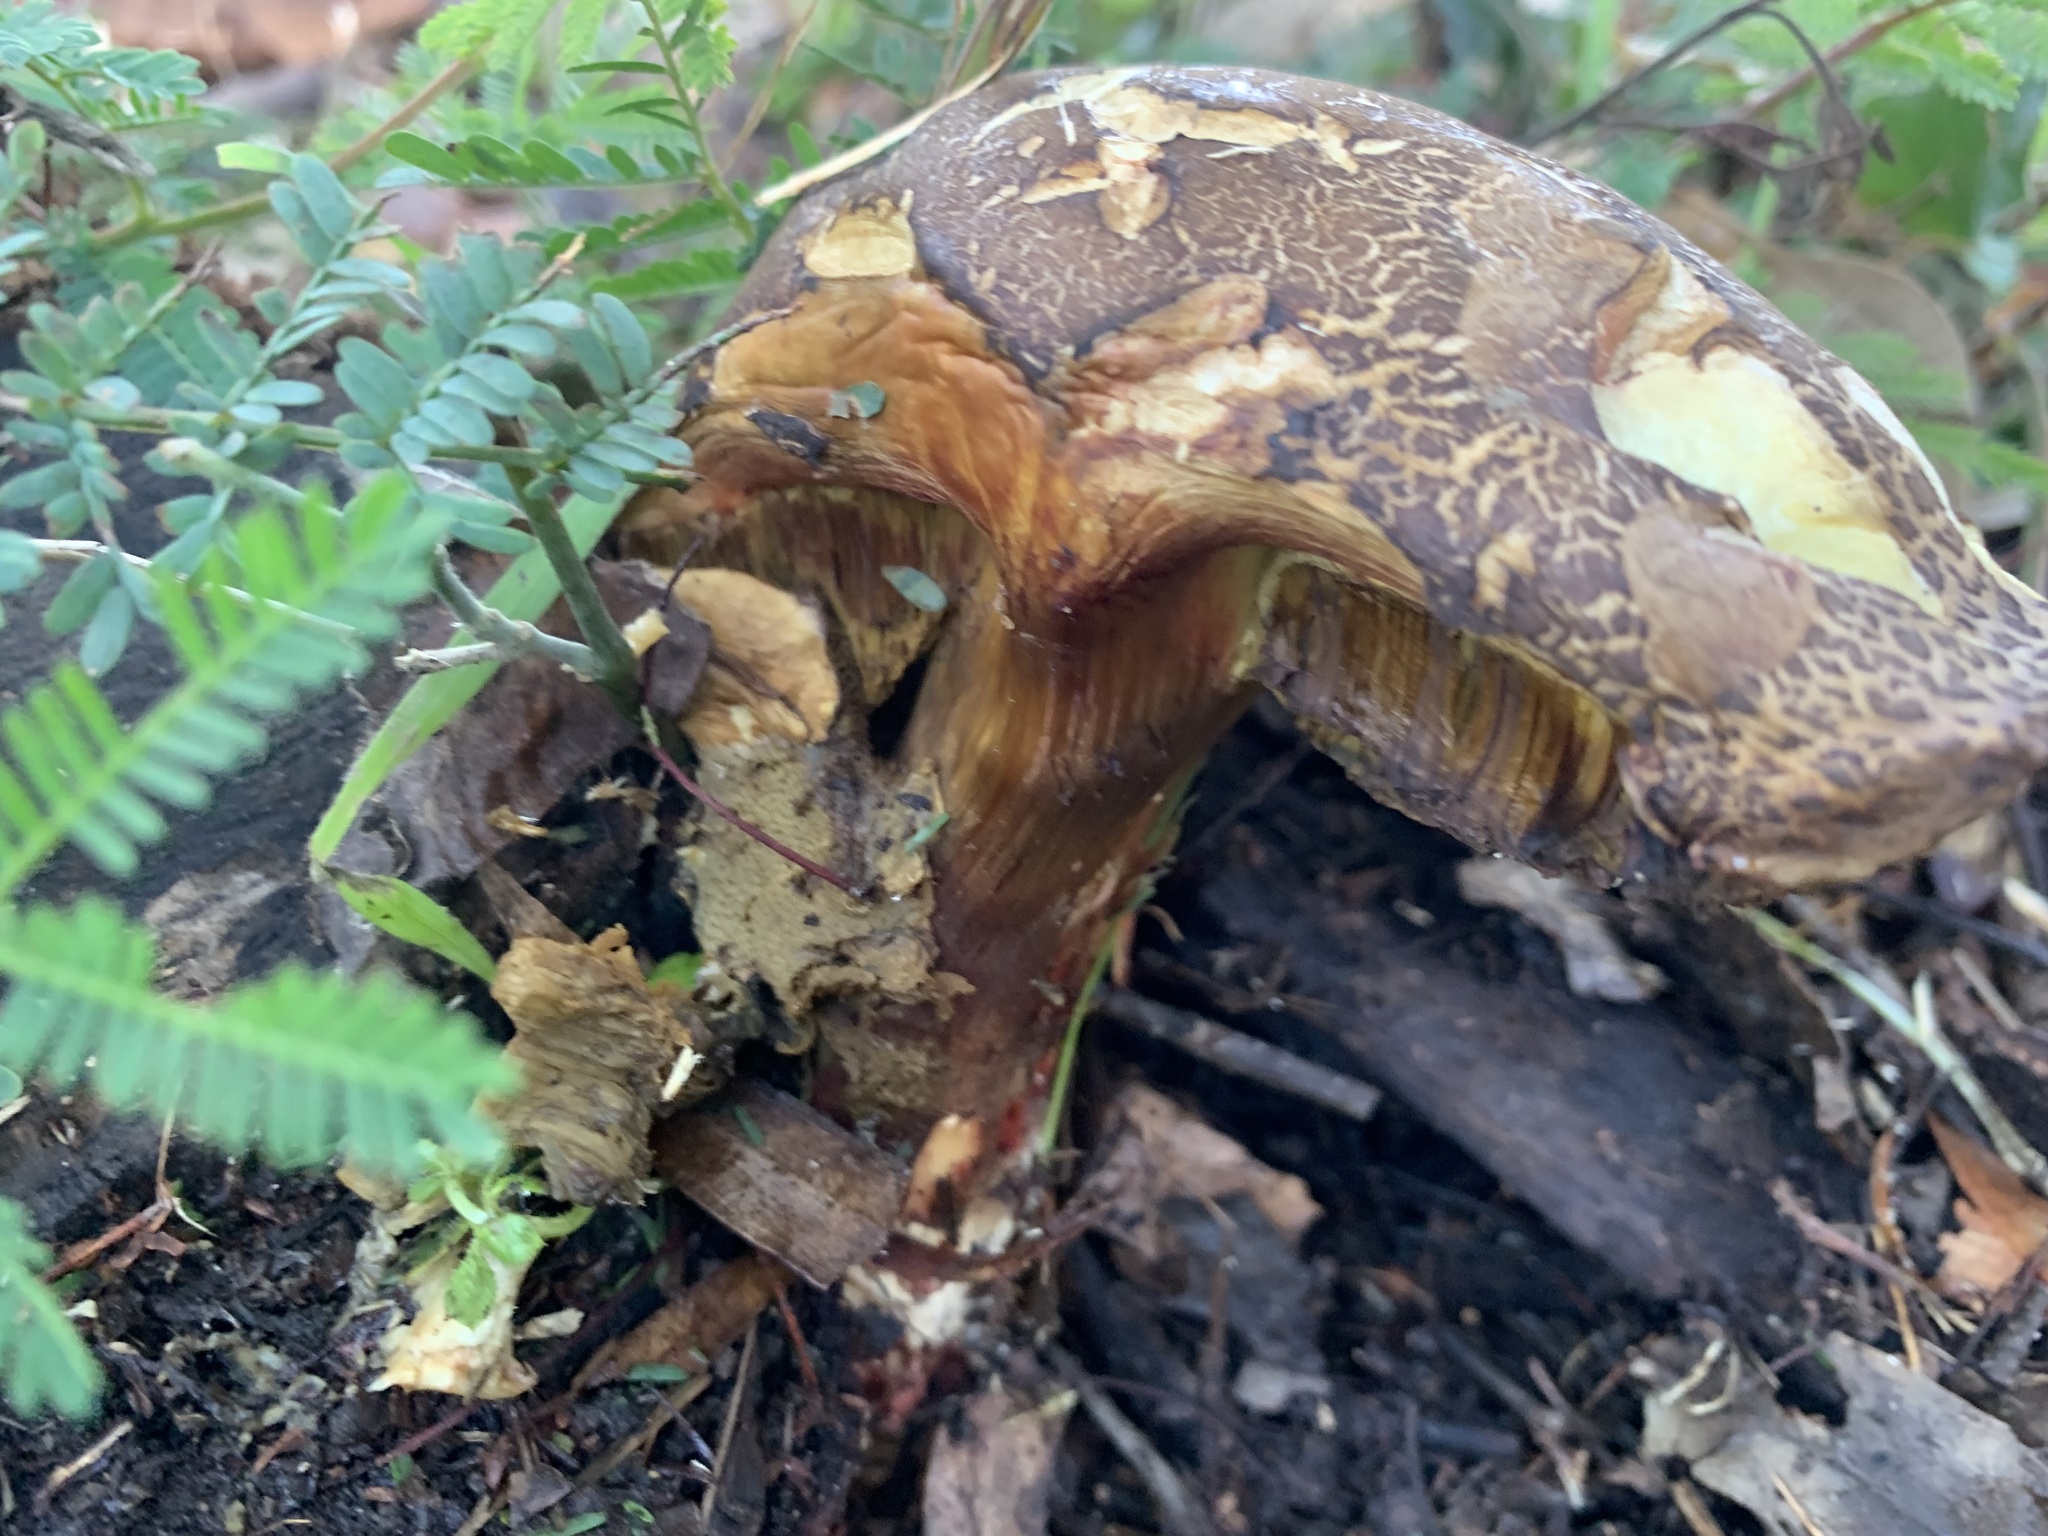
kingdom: Fungi
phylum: Basidiomycota
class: Agaricomycetes
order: Boletales
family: Boletaceae
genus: Xerocomellus
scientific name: Xerocomellus diffractus
